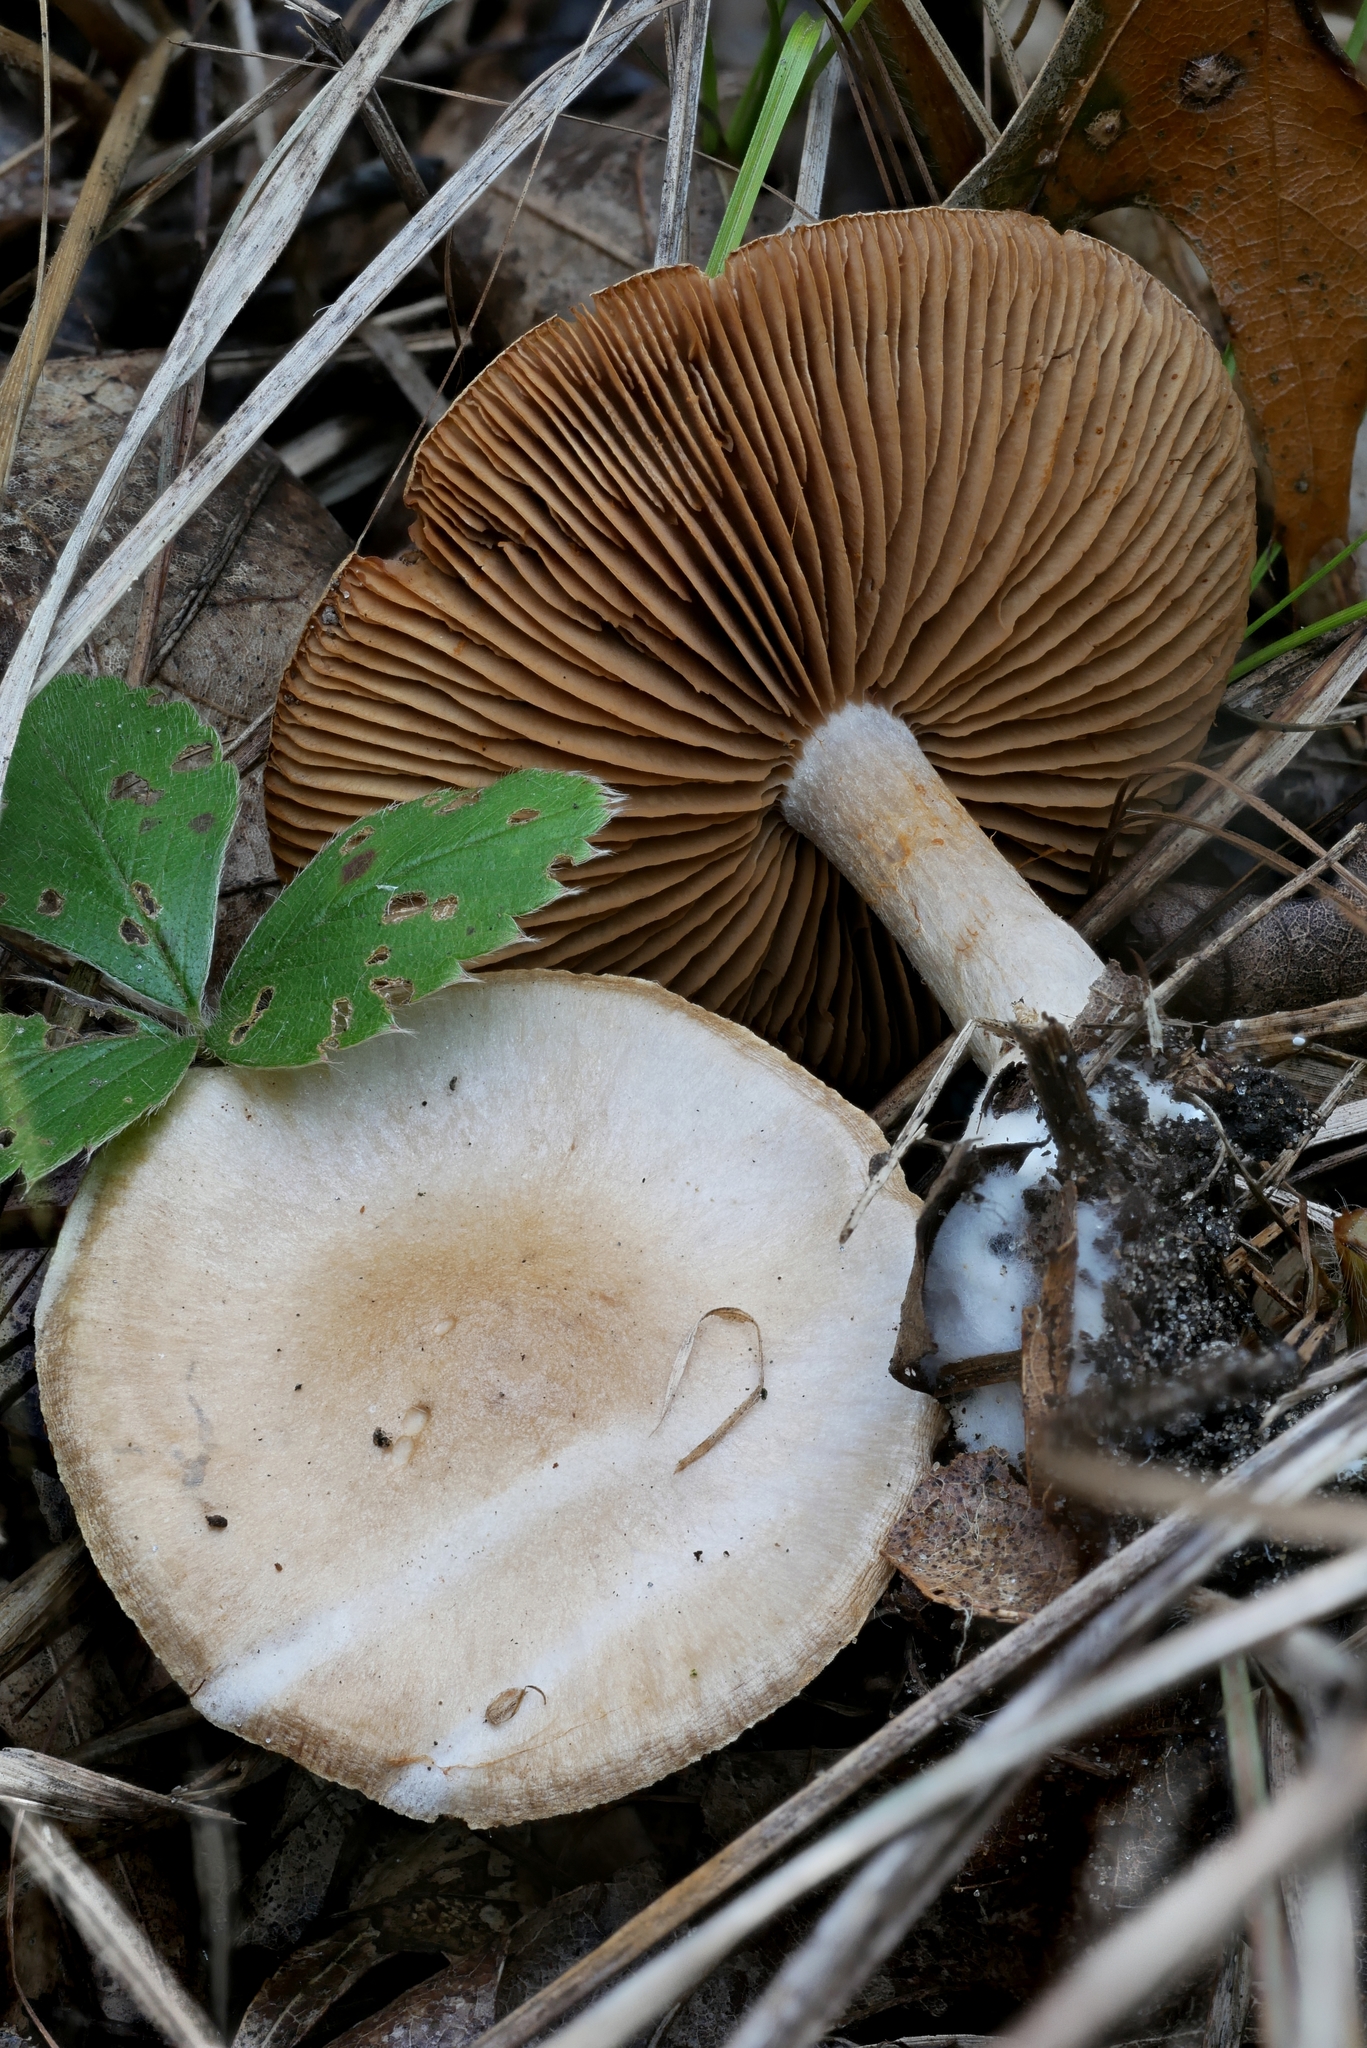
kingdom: Fungi
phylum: Basidiomycota
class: Agaricomycetes
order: Agaricales
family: Cortinariaceae
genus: Cortinarius
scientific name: Cortinarius albomalus
